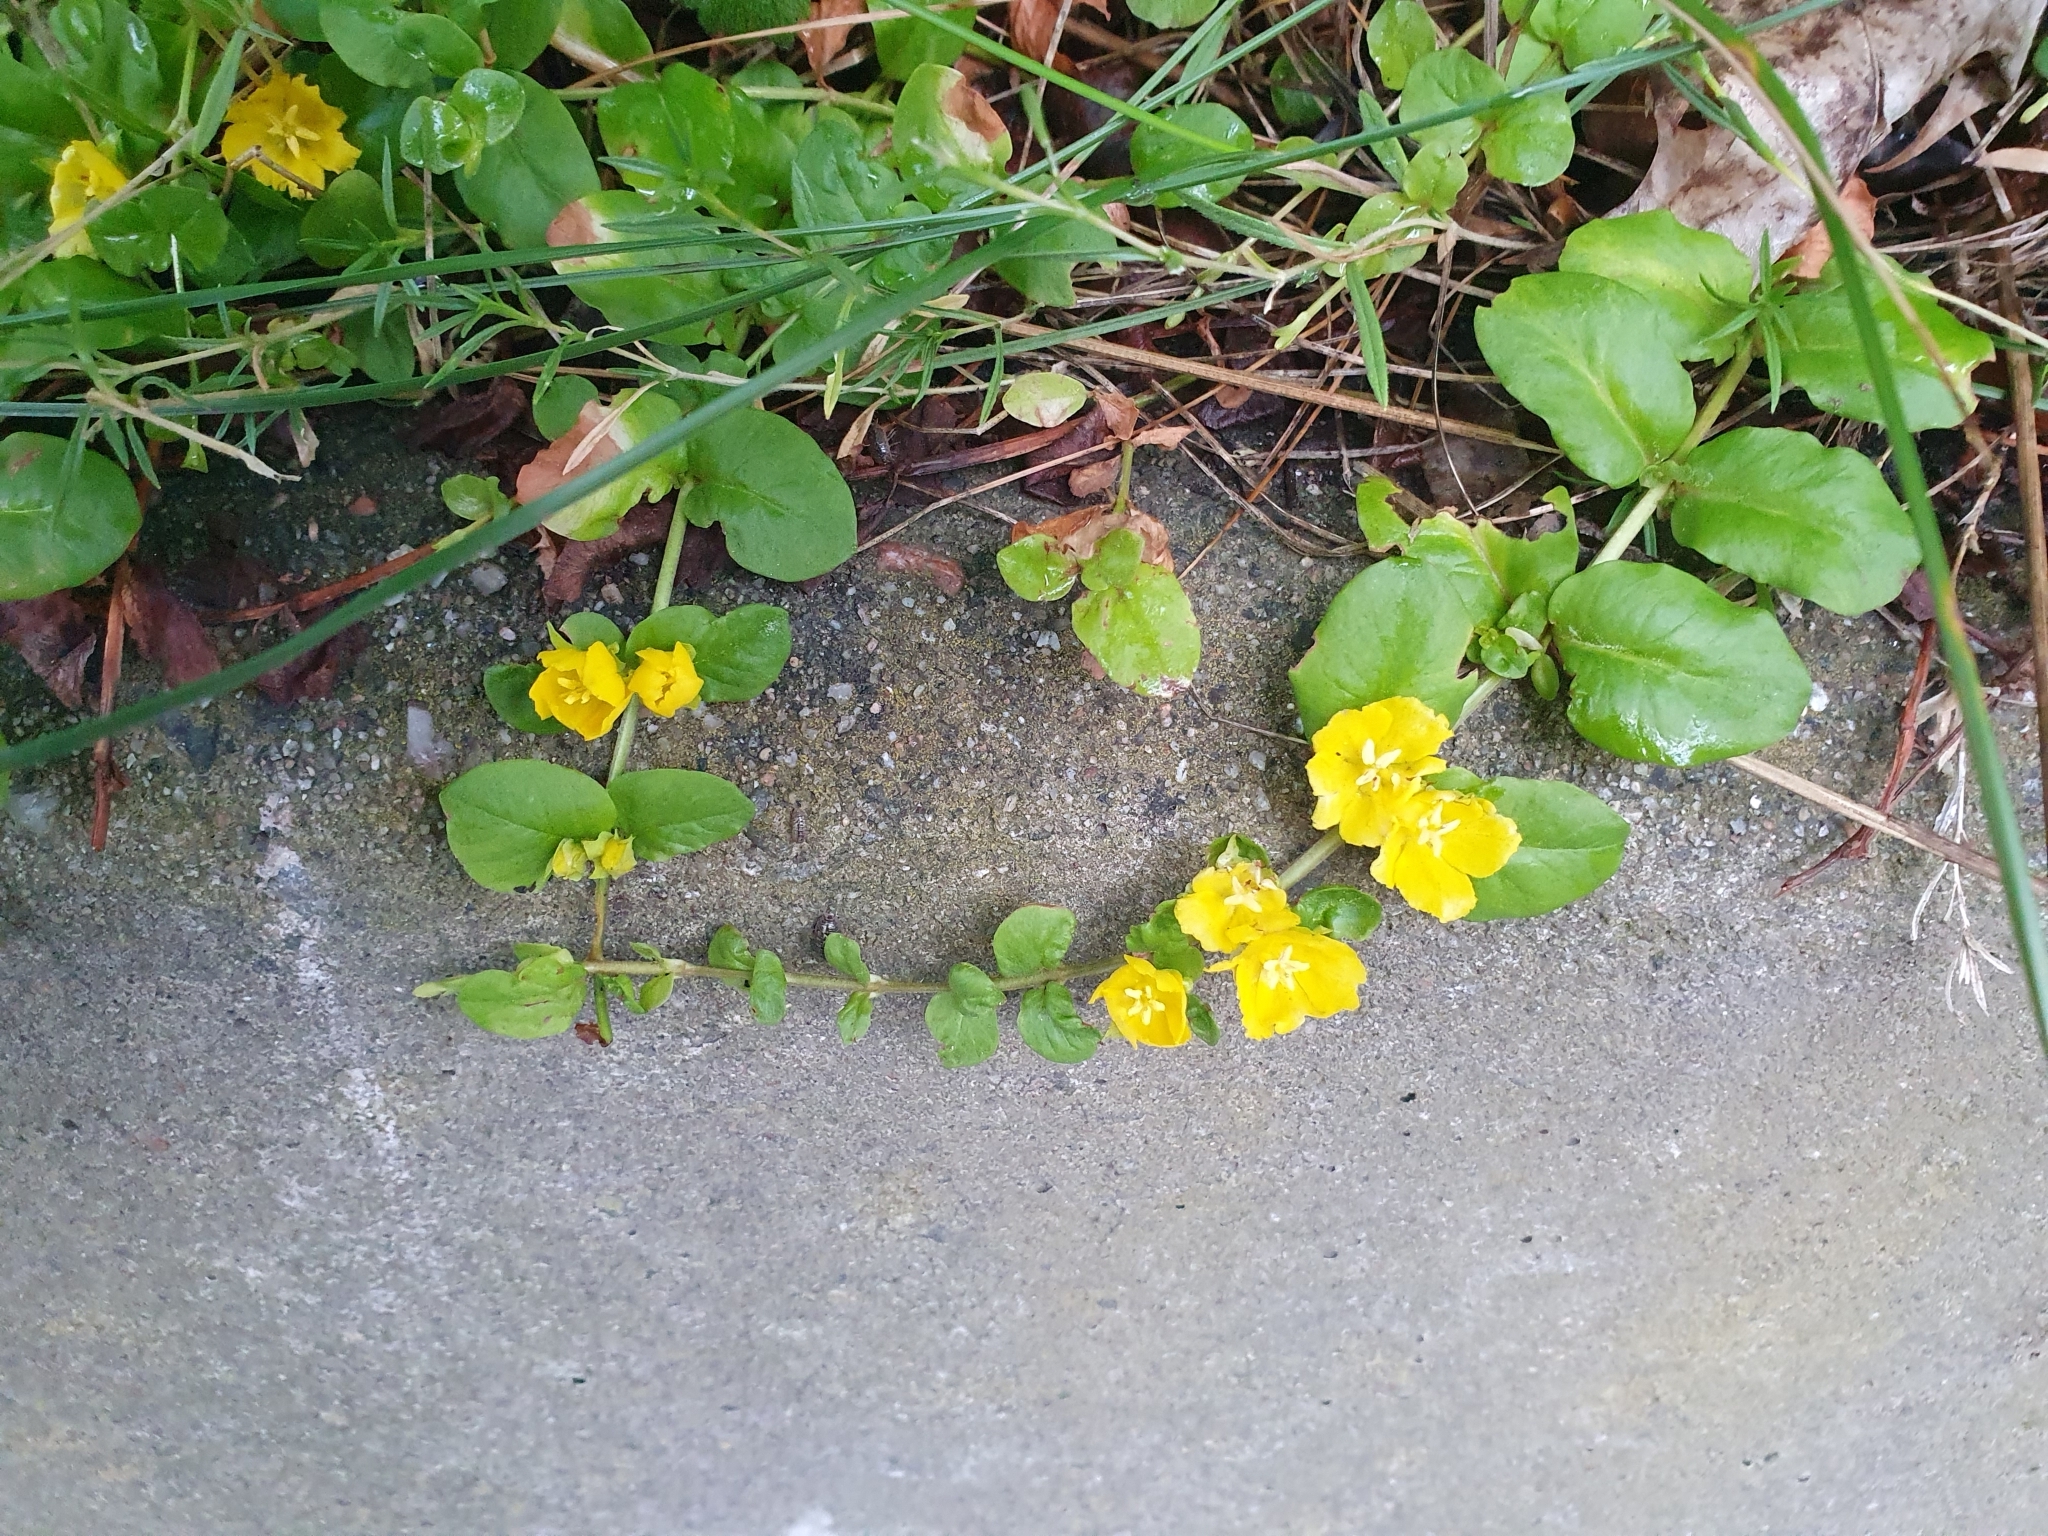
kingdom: Plantae
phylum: Tracheophyta
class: Magnoliopsida
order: Ericales
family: Primulaceae
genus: Lysimachia
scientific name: Lysimachia nummularia
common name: Moneywort
